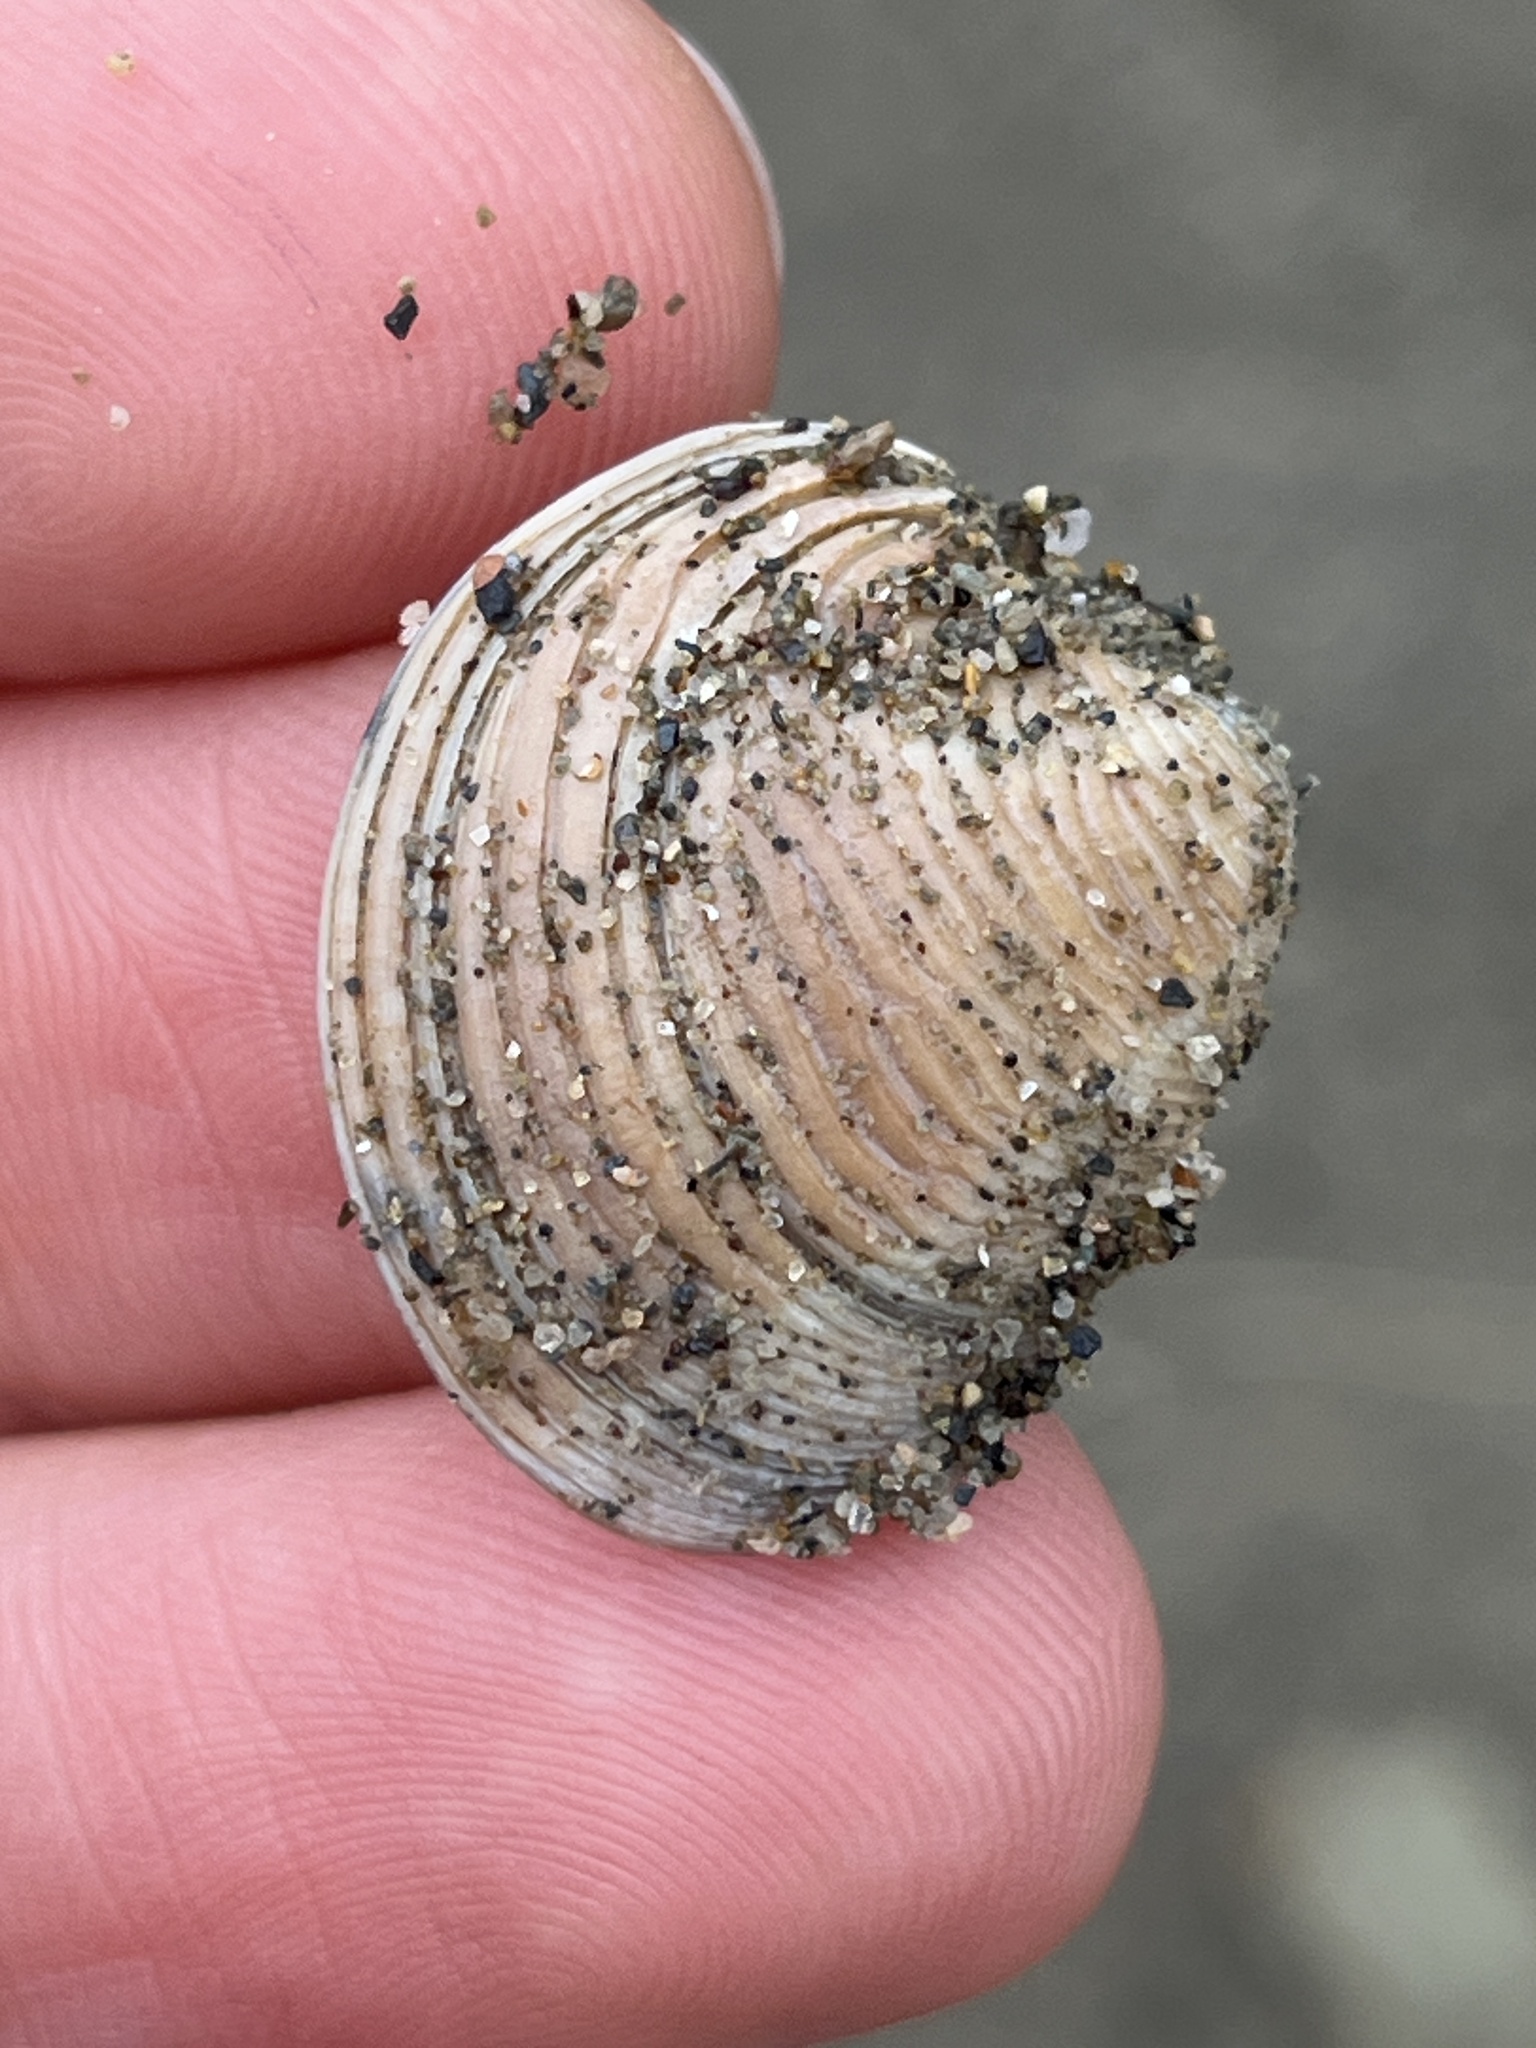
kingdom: Animalia
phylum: Mollusca
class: Bivalvia
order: Venerida
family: Veneridae
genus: Chamelea
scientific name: Chamelea gallina
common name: Chicken venus
